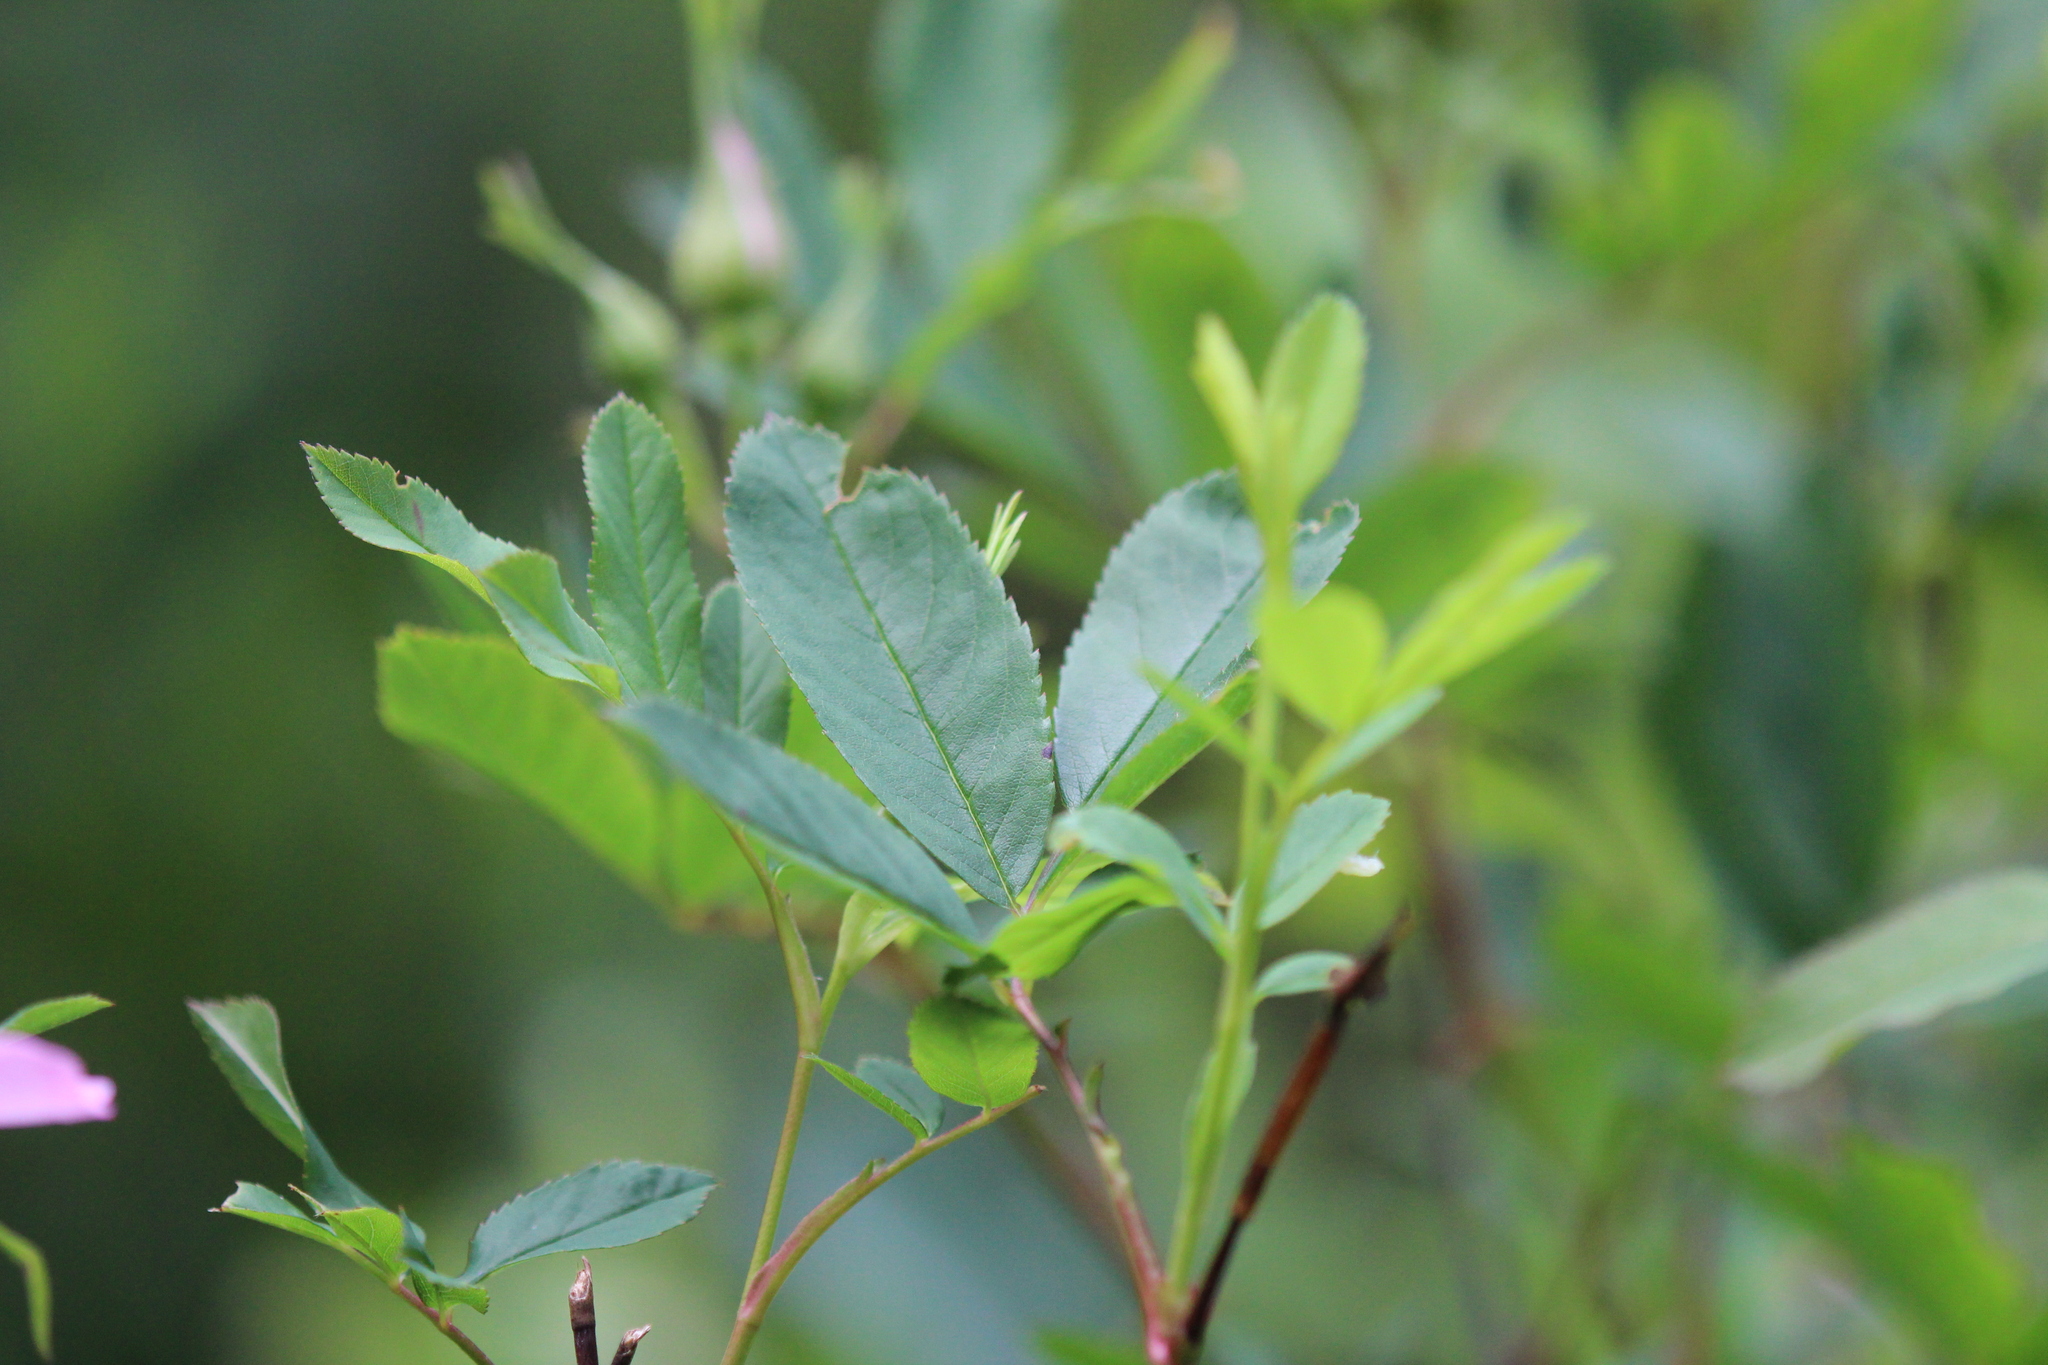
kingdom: Plantae
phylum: Tracheophyta
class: Magnoliopsida
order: Rosales
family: Rosaceae
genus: Rosa
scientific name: Rosa palustris
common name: Swamp rose
